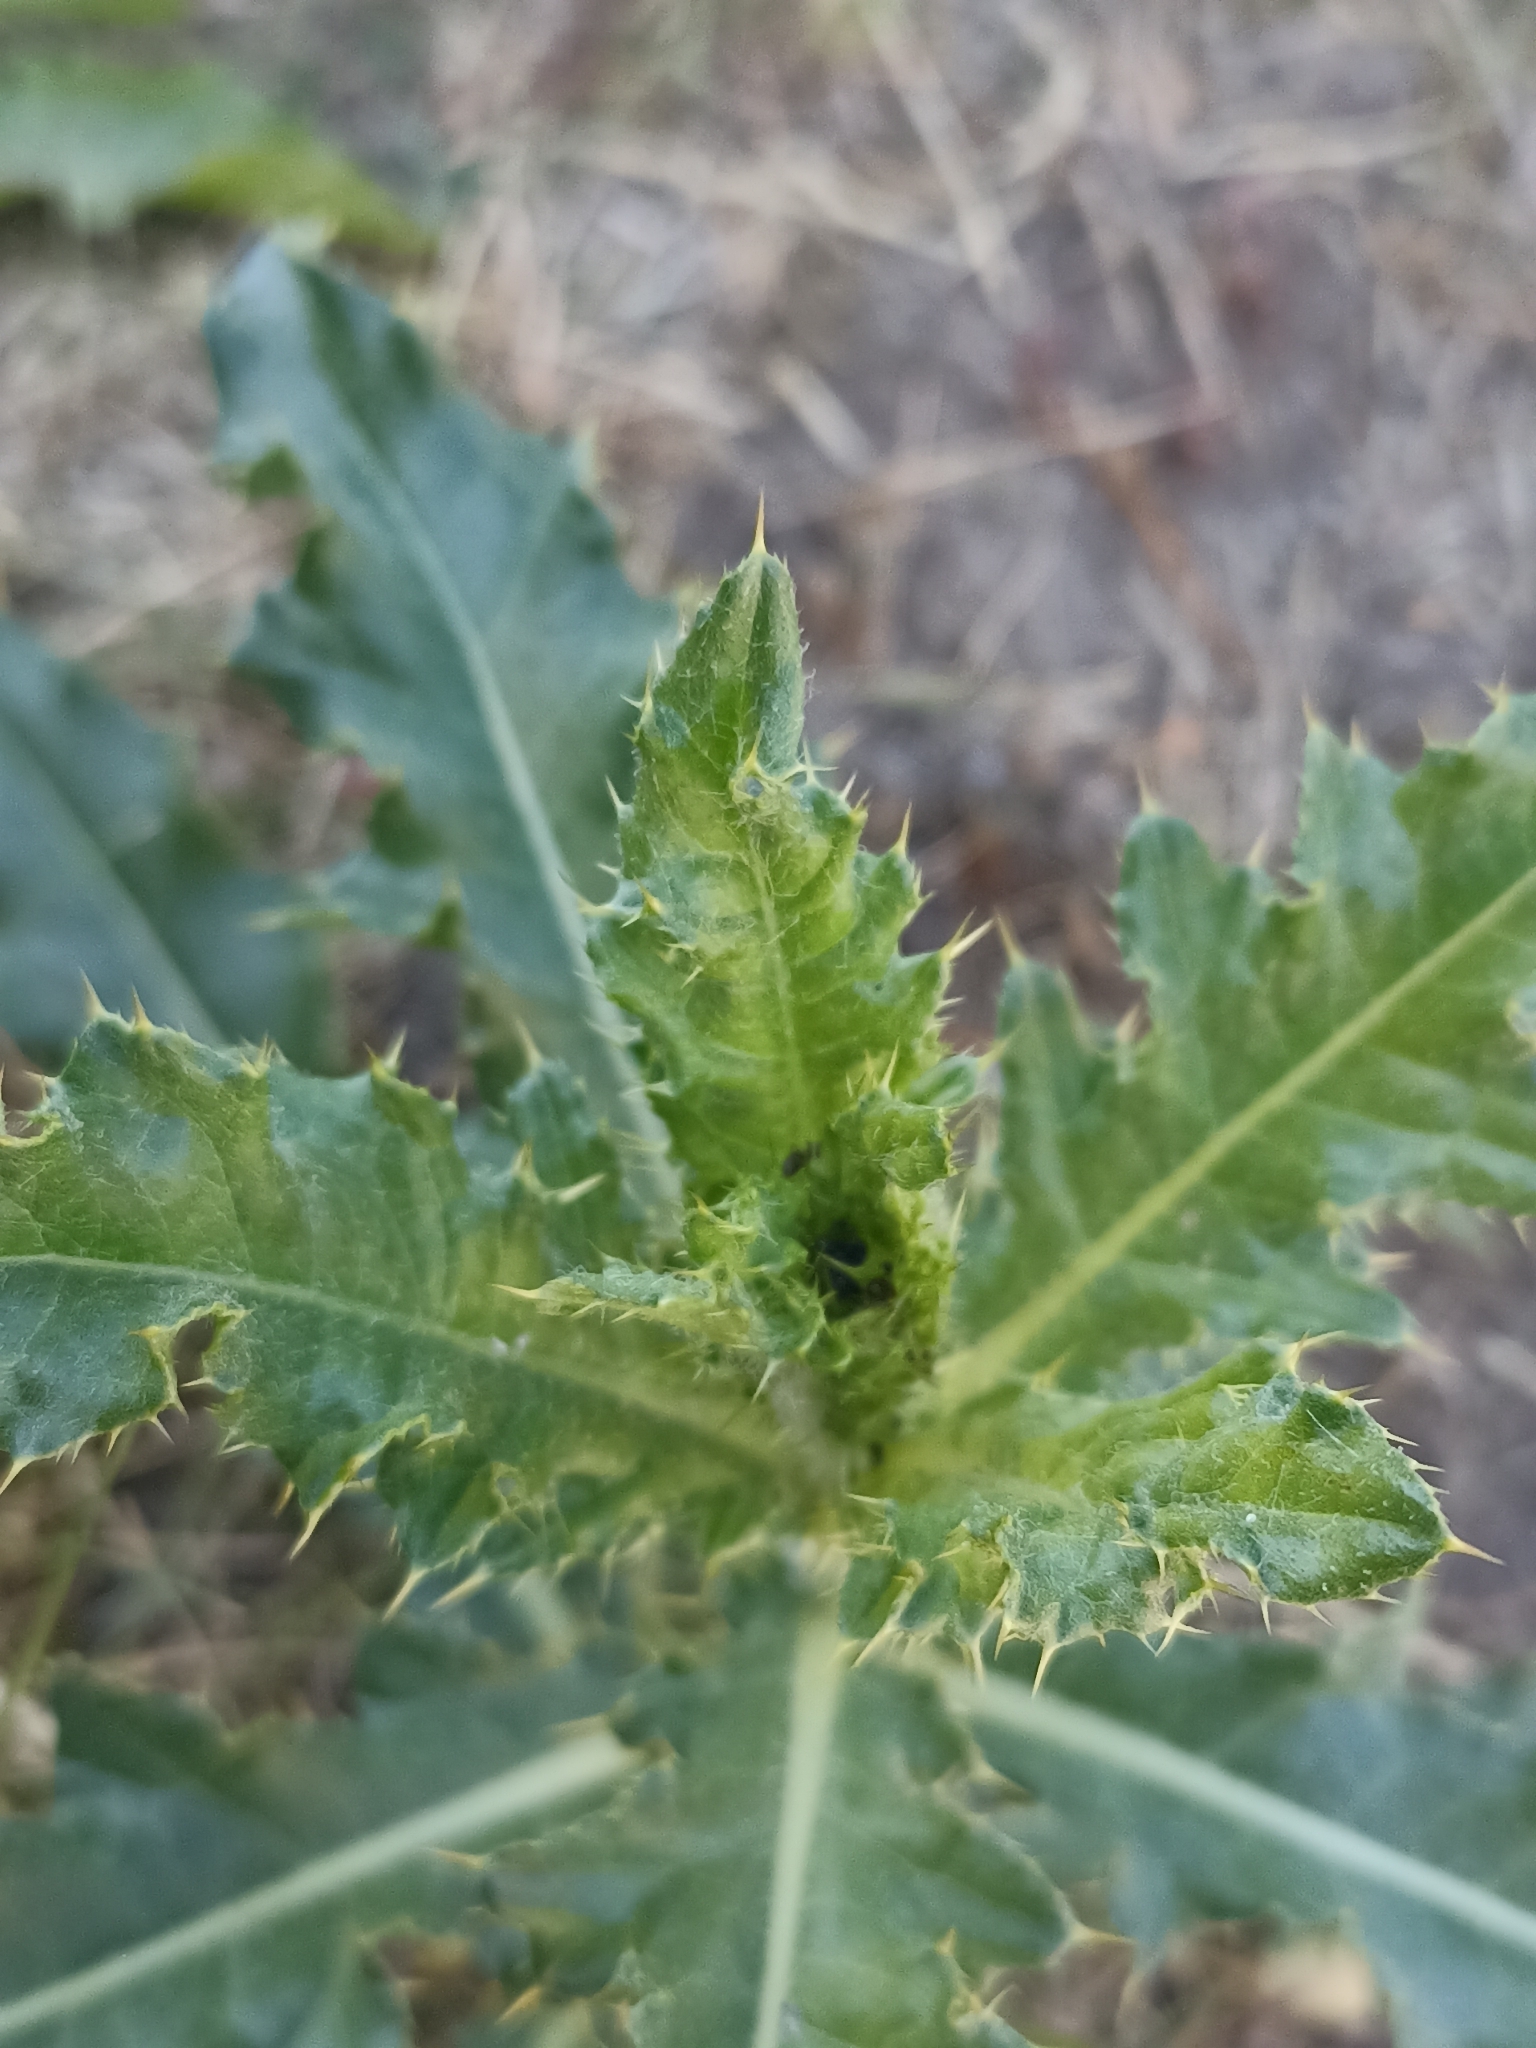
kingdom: Plantae
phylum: Tracheophyta
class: Magnoliopsida
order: Asterales
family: Asteraceae
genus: Cirsium
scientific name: Cirsium arvense
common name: Creeping thistle
